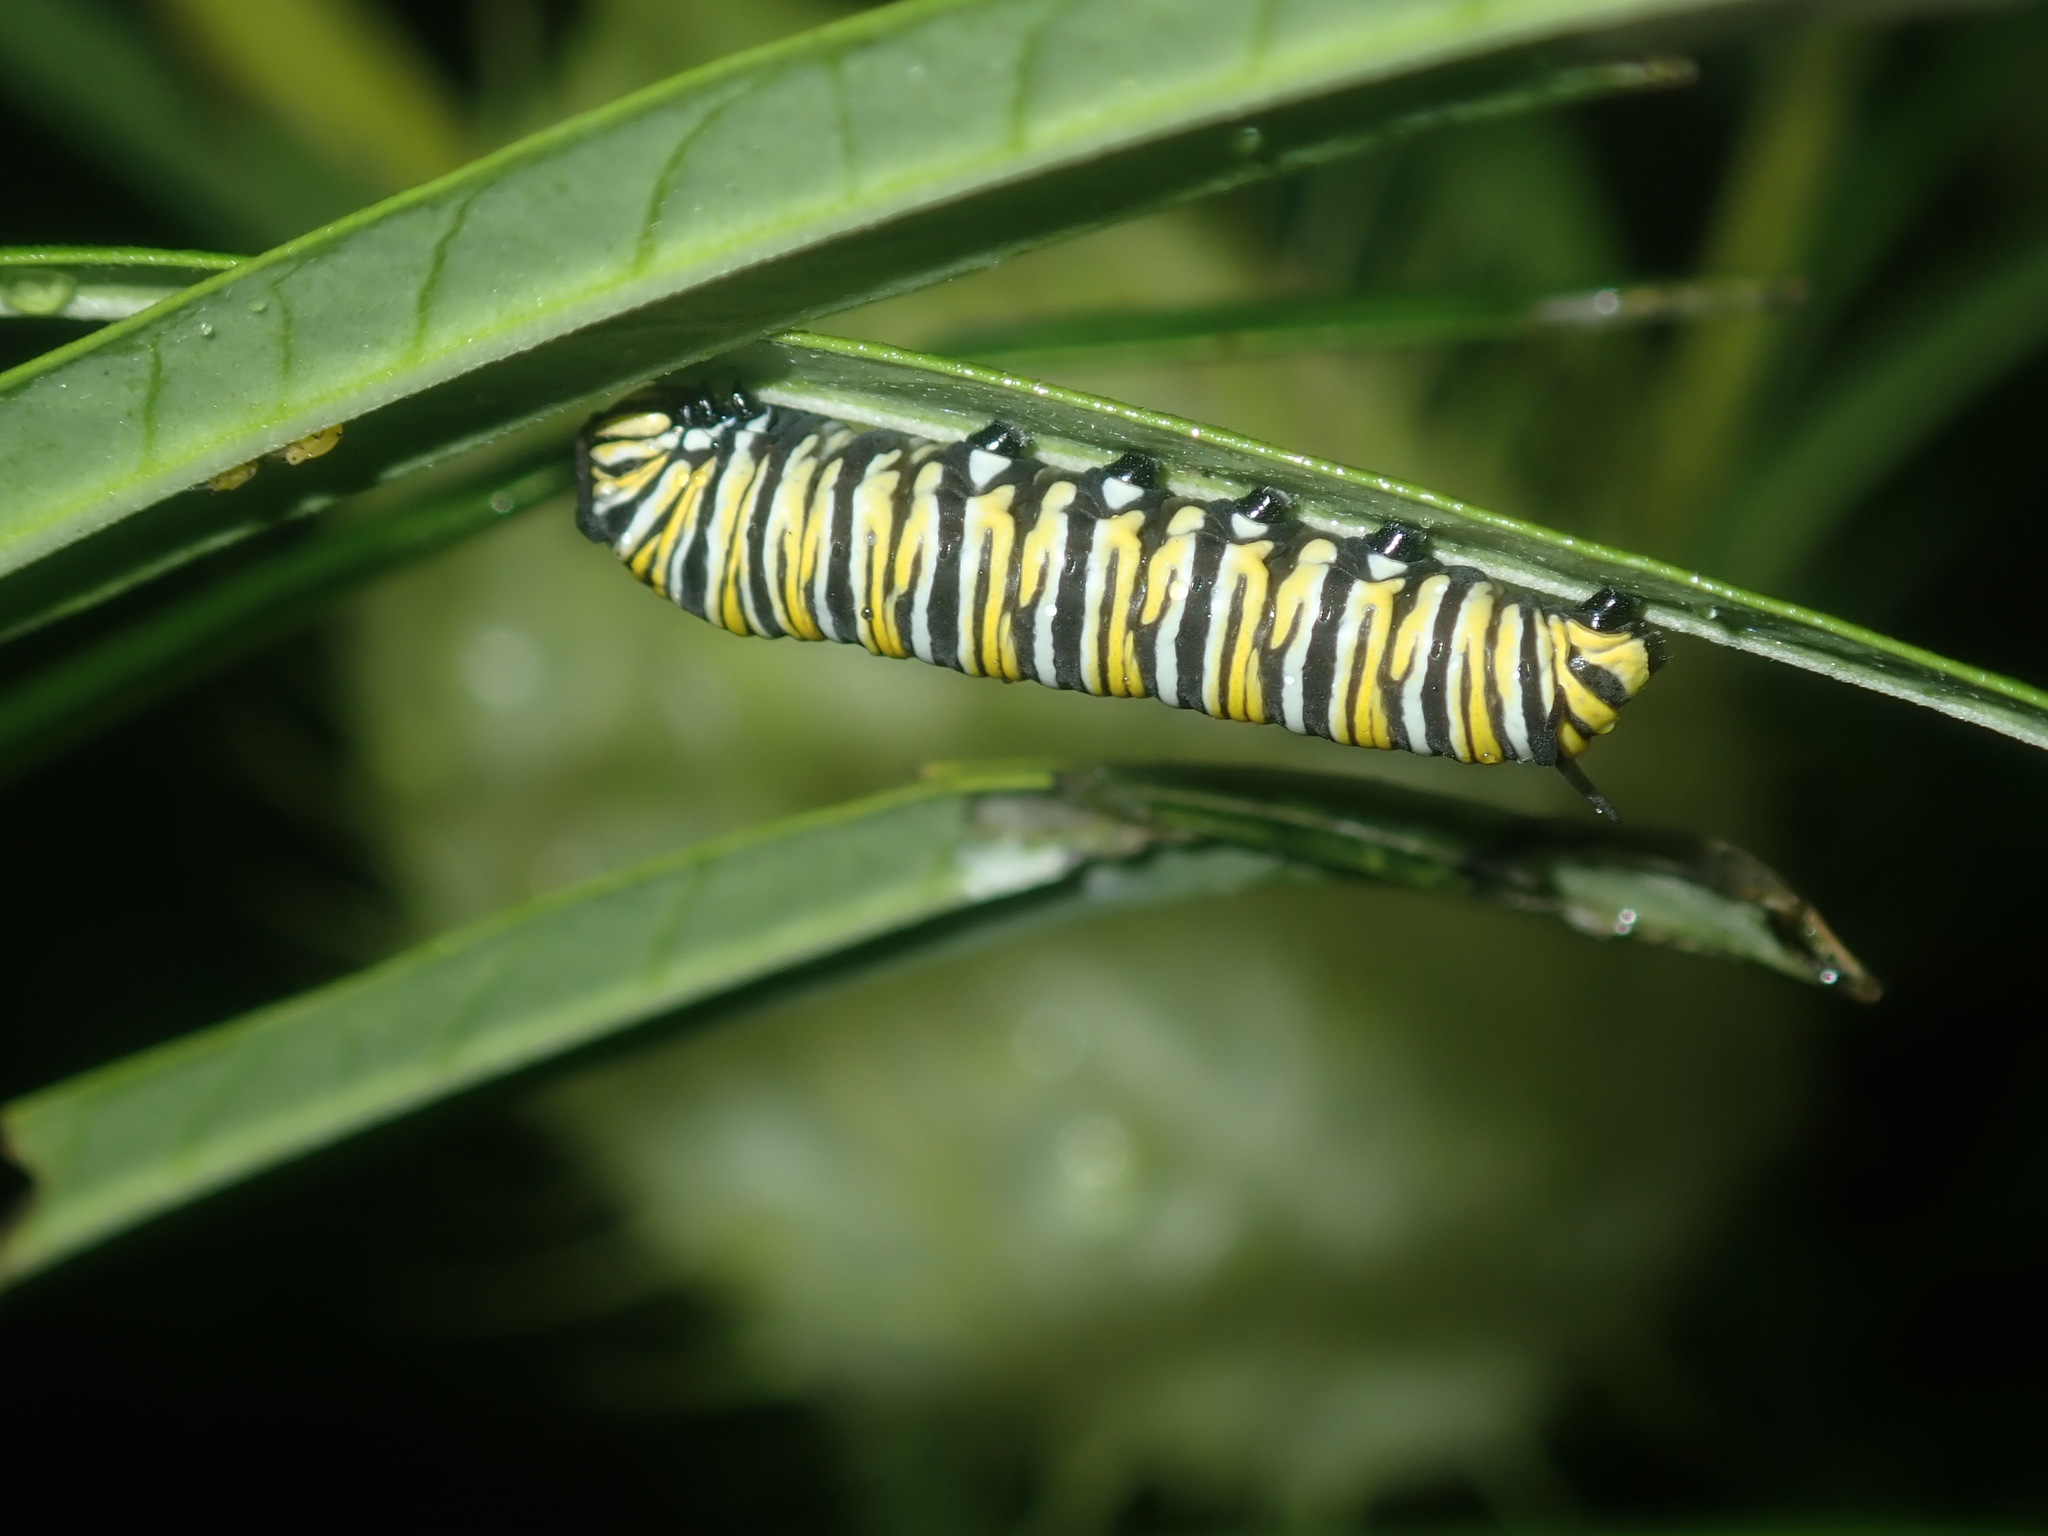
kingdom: Animalia
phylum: Arthropoda
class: Insecta
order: Lepidoptera
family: Nymphalidae
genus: Danaus
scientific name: Danaus plexippus
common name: Monarch
